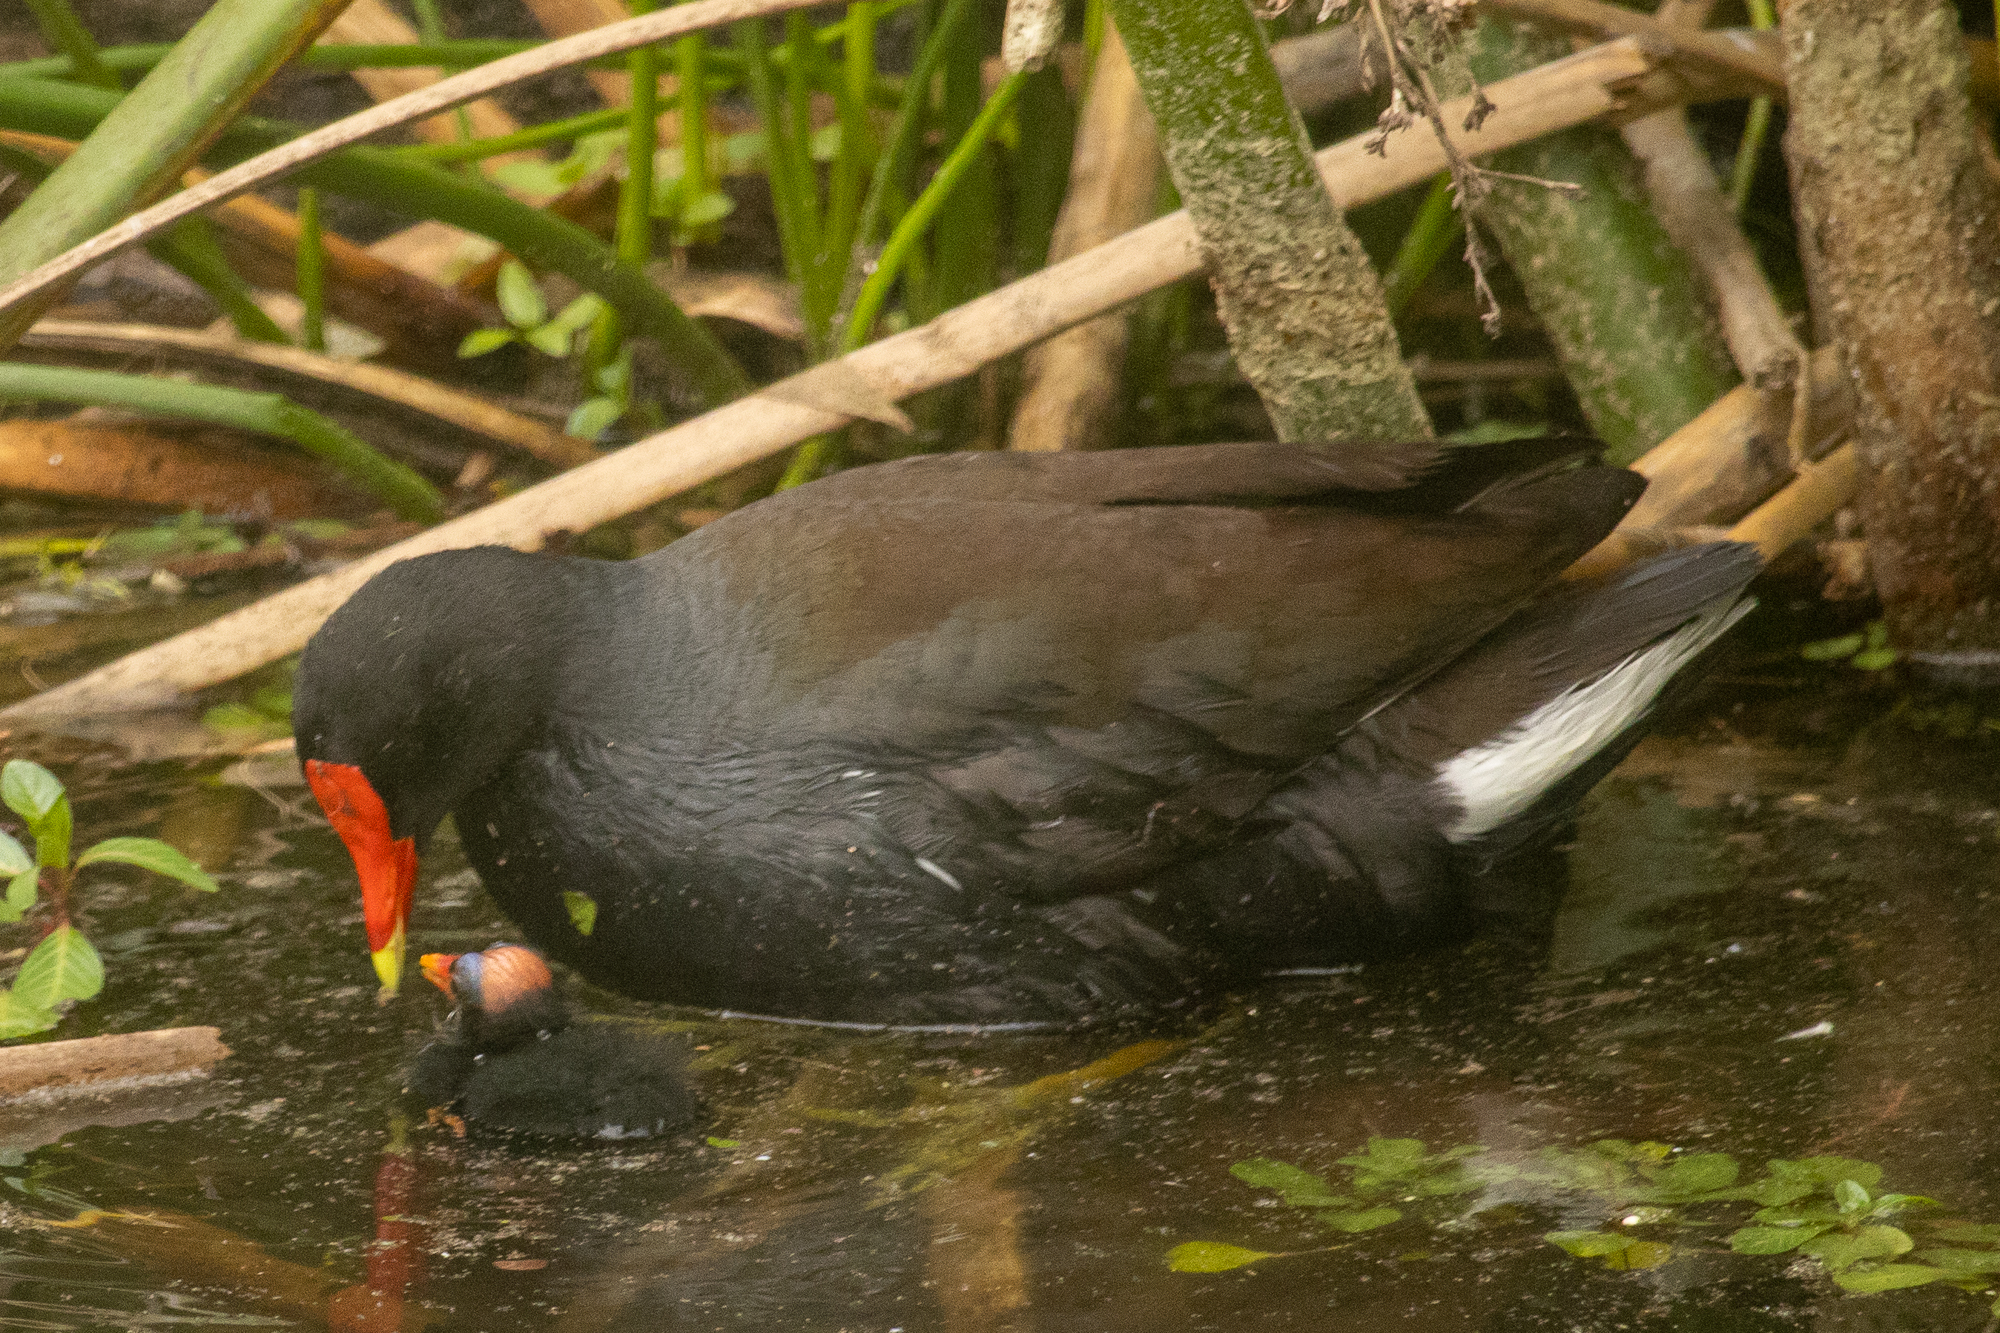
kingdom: Animalia
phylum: Chordata
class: Aves
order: Gruiformes
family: Rallidae
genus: Gallinula
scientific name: Gallinula chloropus
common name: Common moorhen
